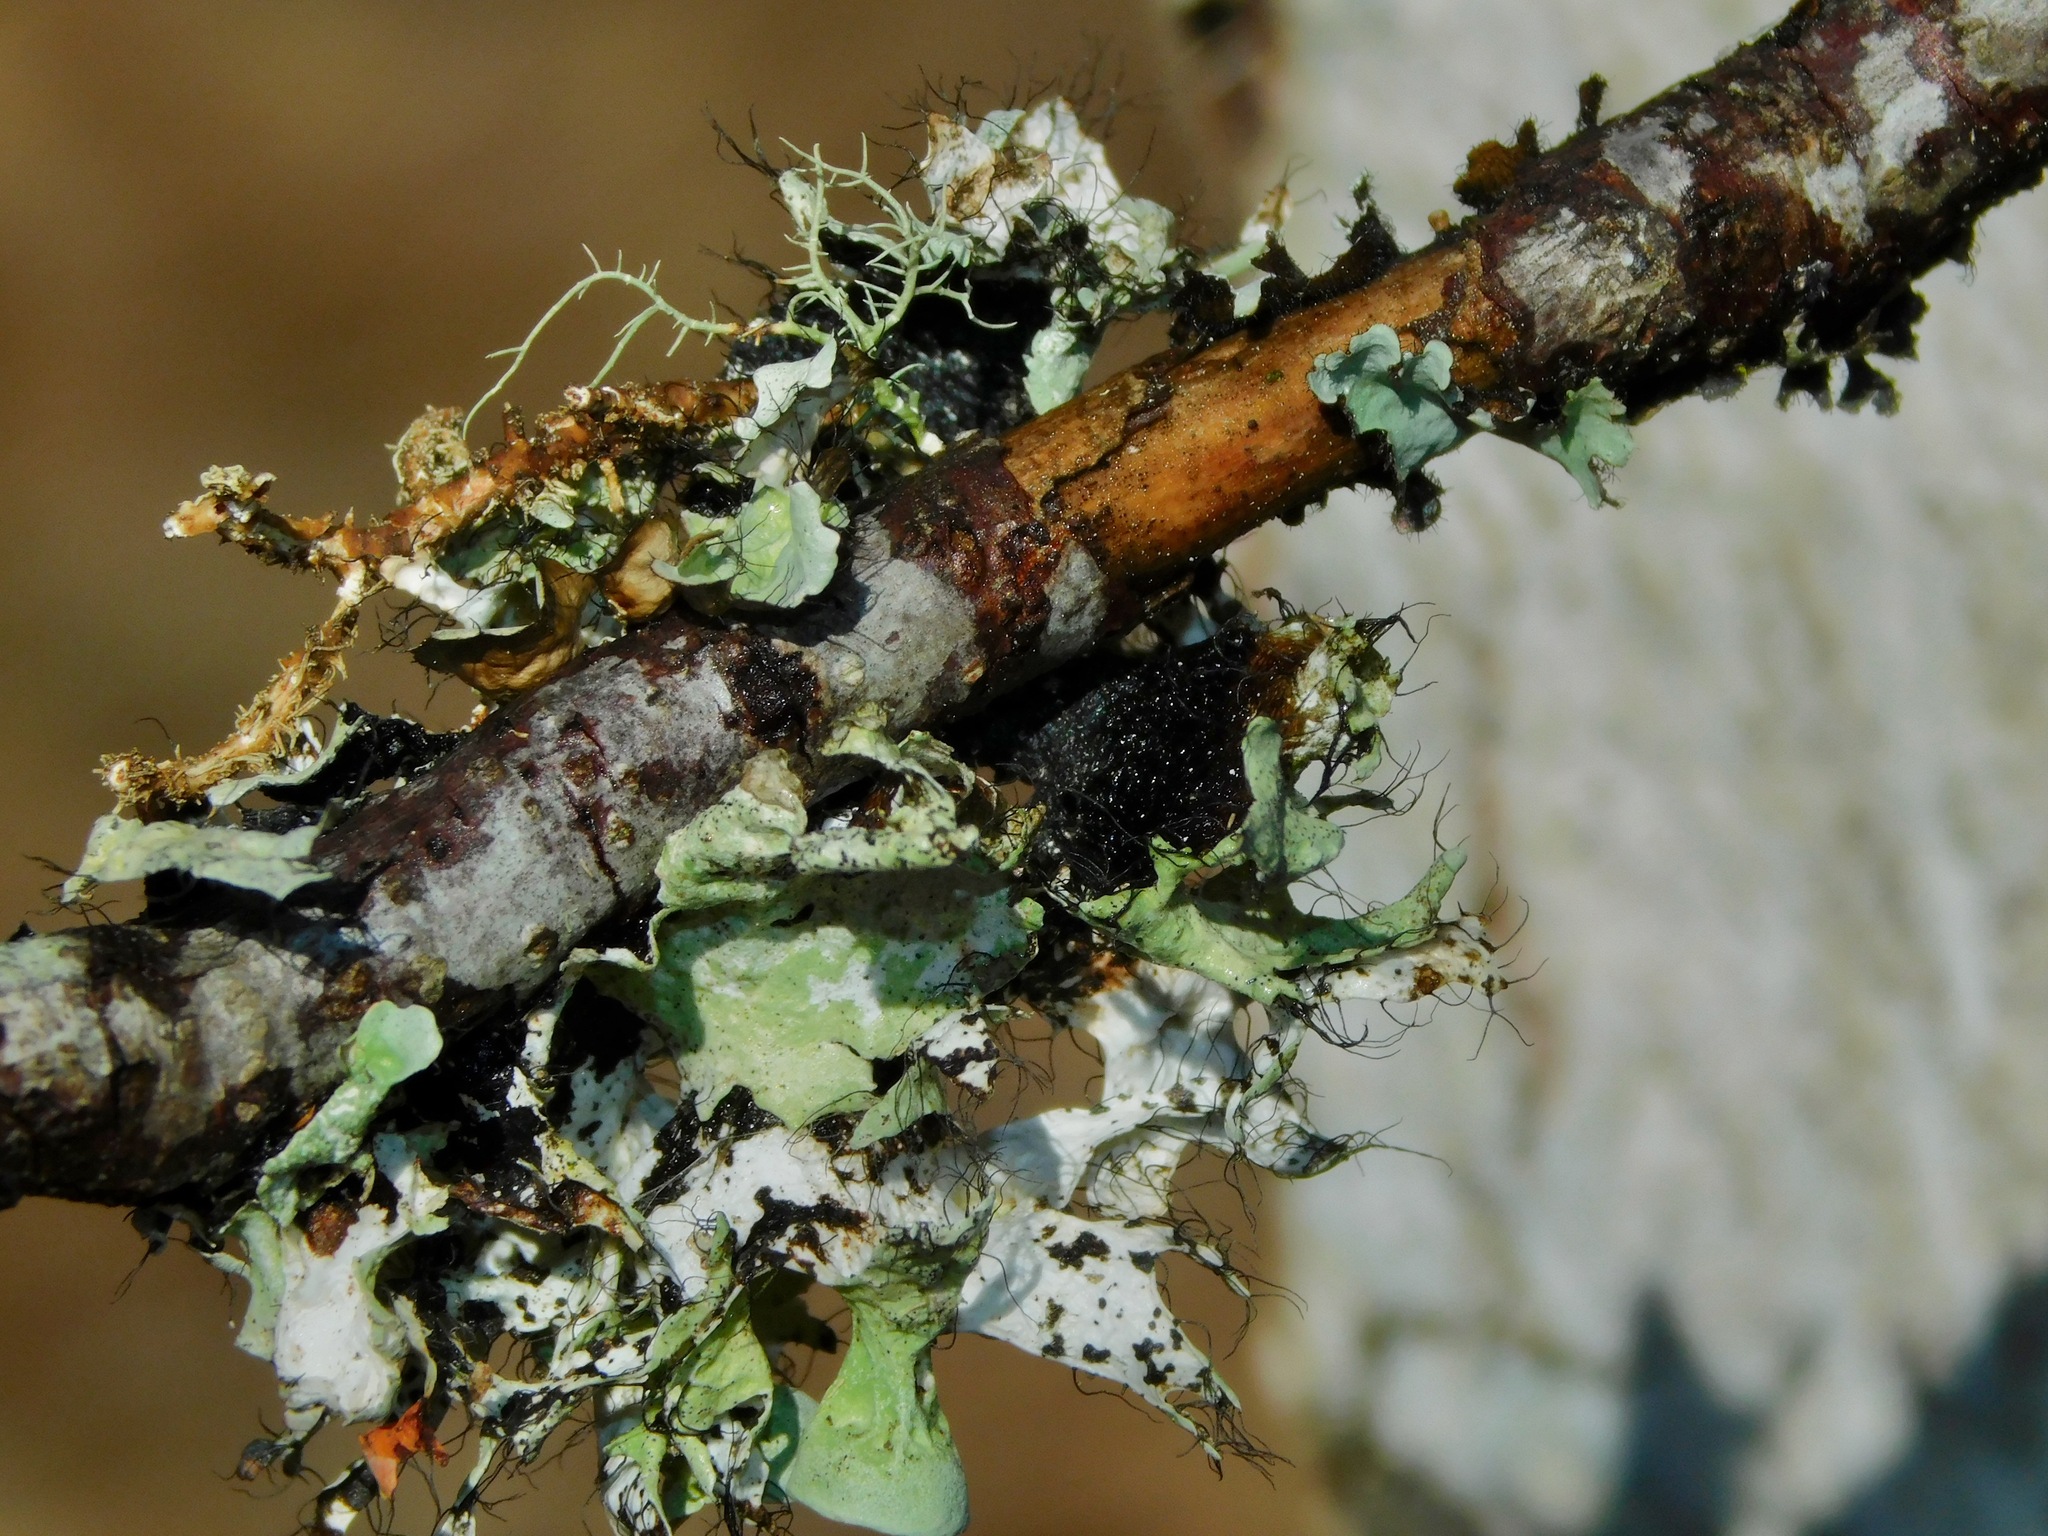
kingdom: Fungi
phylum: Ascomycota
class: Lecanoromycetes
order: Lecanorales
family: Parmeliaceae
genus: Parmotrema
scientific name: Parmotrema perforatum
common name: Perforated ruffle lichen
